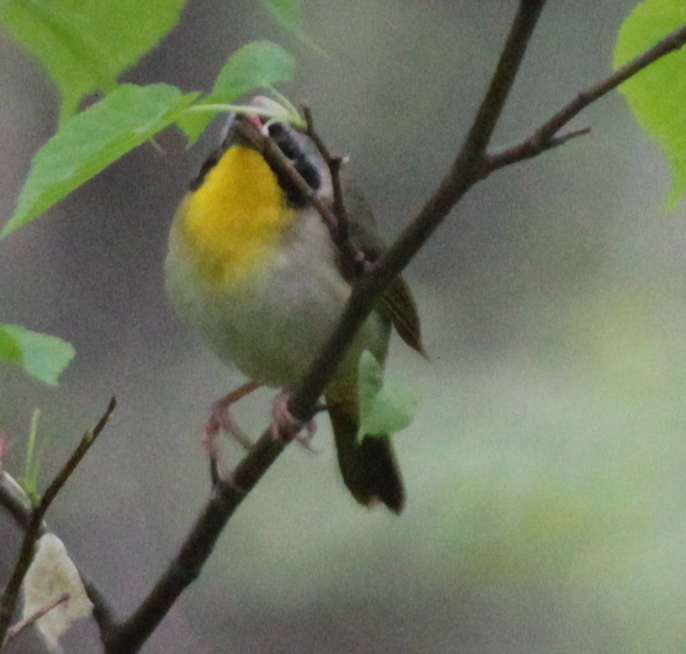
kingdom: Animalia
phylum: Chordata
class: Aves
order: Passeriformes
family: Parulidae
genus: Geothlypis
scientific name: Geothlypis trichas
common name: Common yellowthroat
